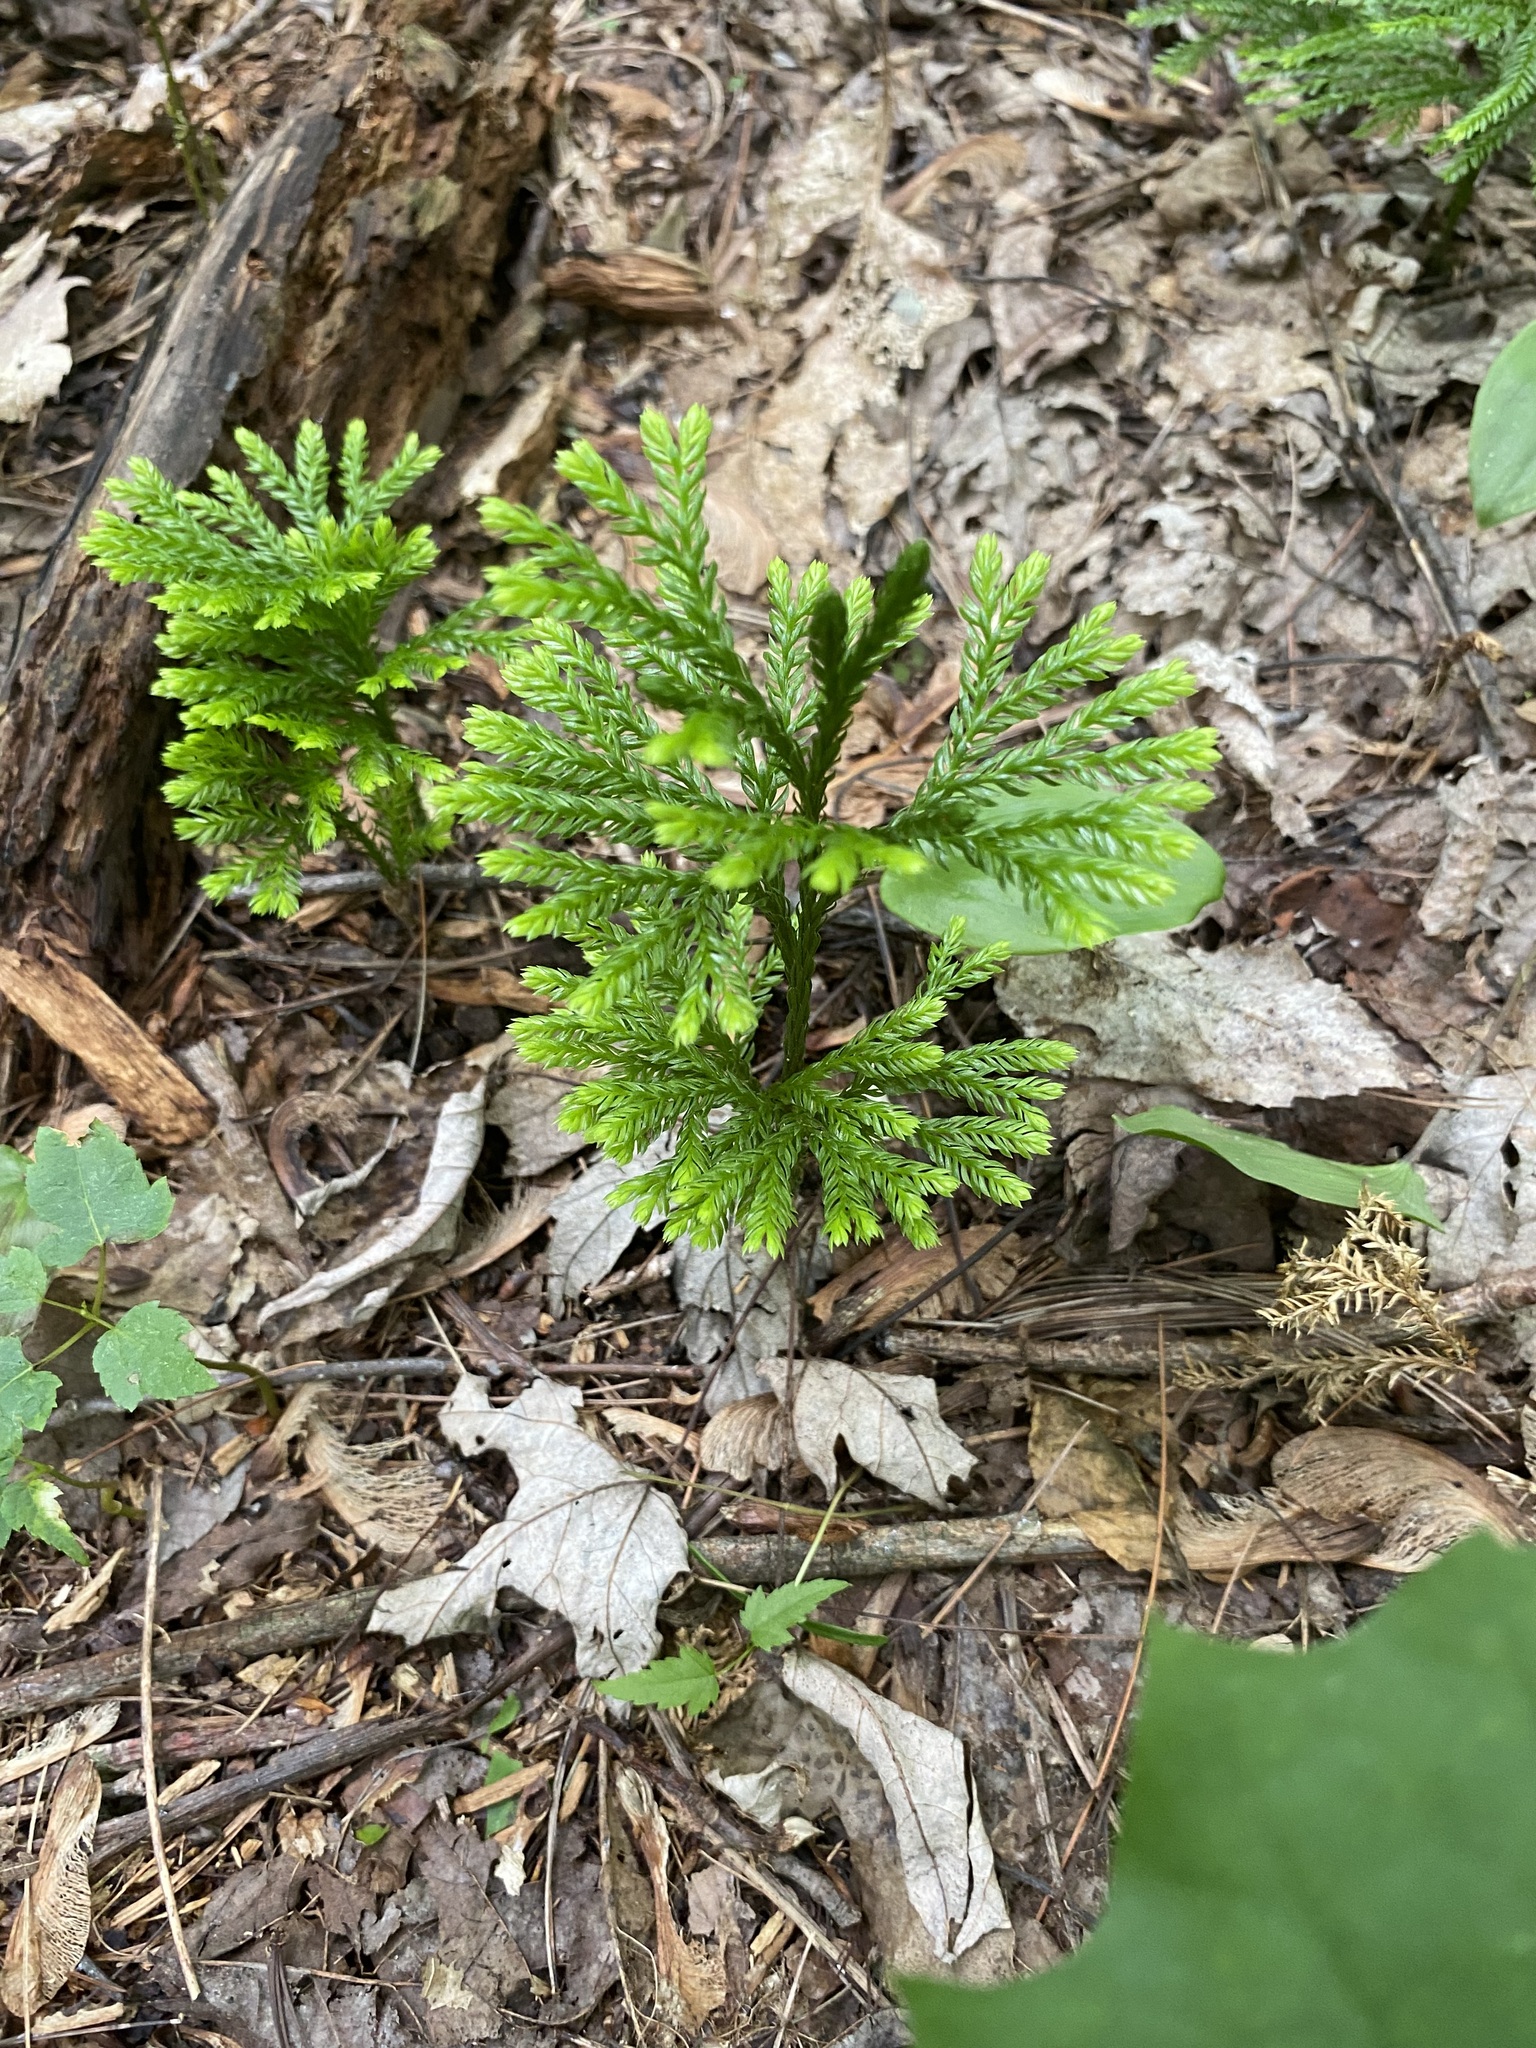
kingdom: Plantae
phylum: Tracheophyta
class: Lycopodiopsida
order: Lycopodiales
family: Lycopodiaceae
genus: Dendrolycopodium
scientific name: Dendrolycopodium obscurum
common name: Common ground-pine
